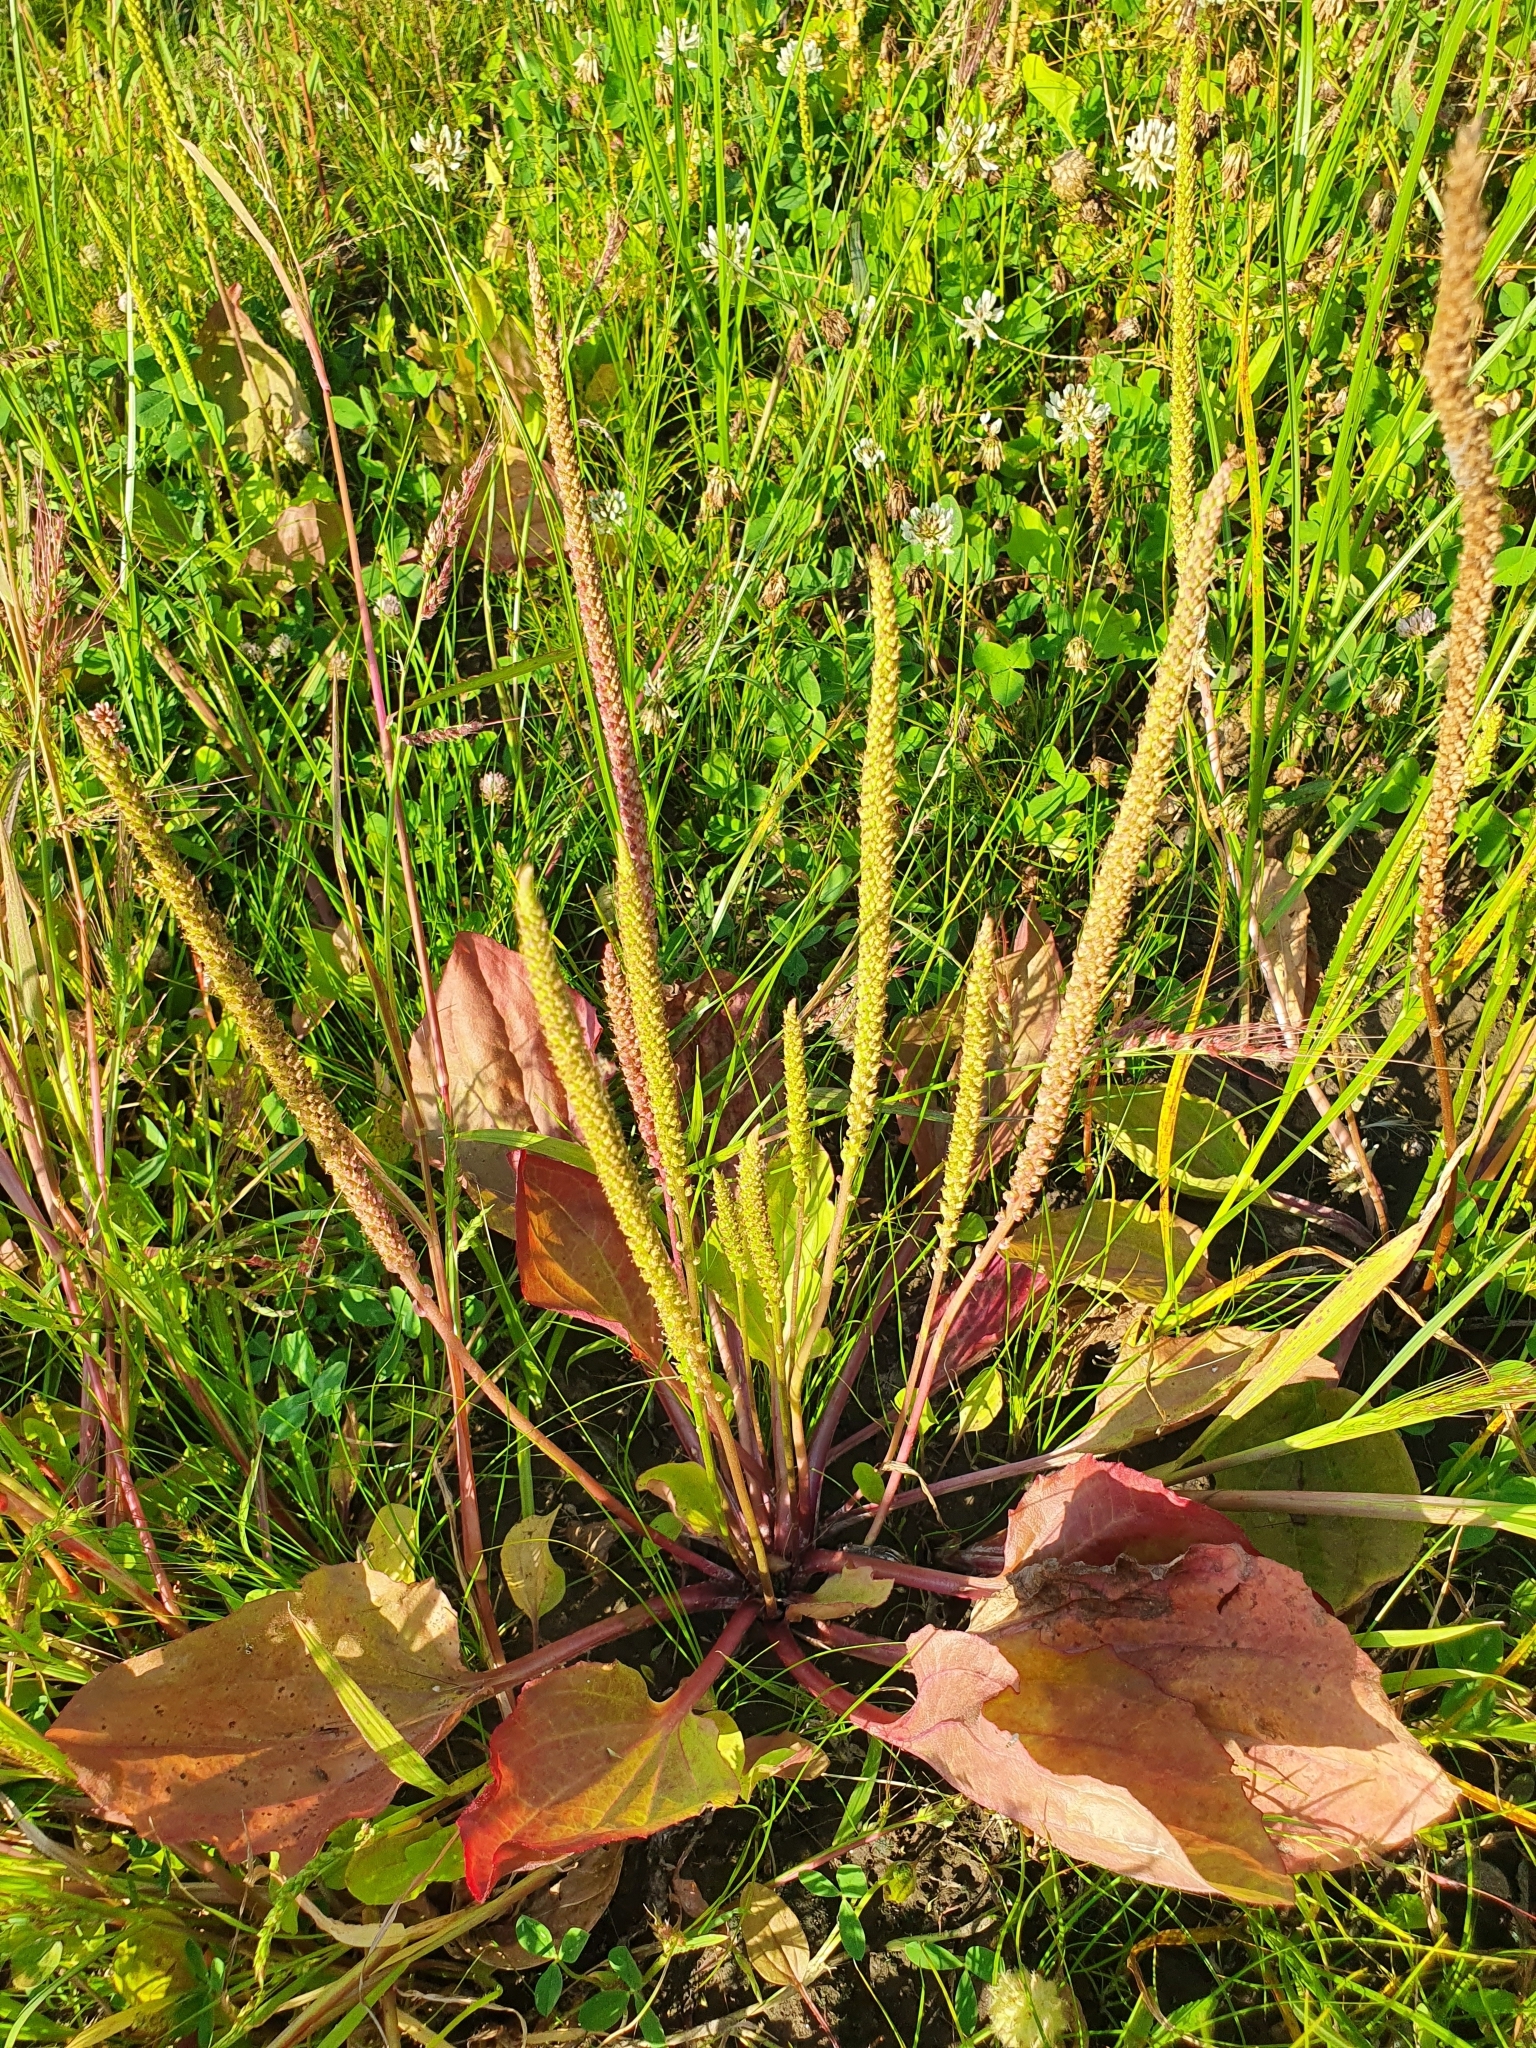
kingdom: Plantae
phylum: Tracheophyta
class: Magnoliopsida
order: Lamiales
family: Plantaginaceae
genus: Plantago
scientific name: Plantago major
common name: Common plantain
